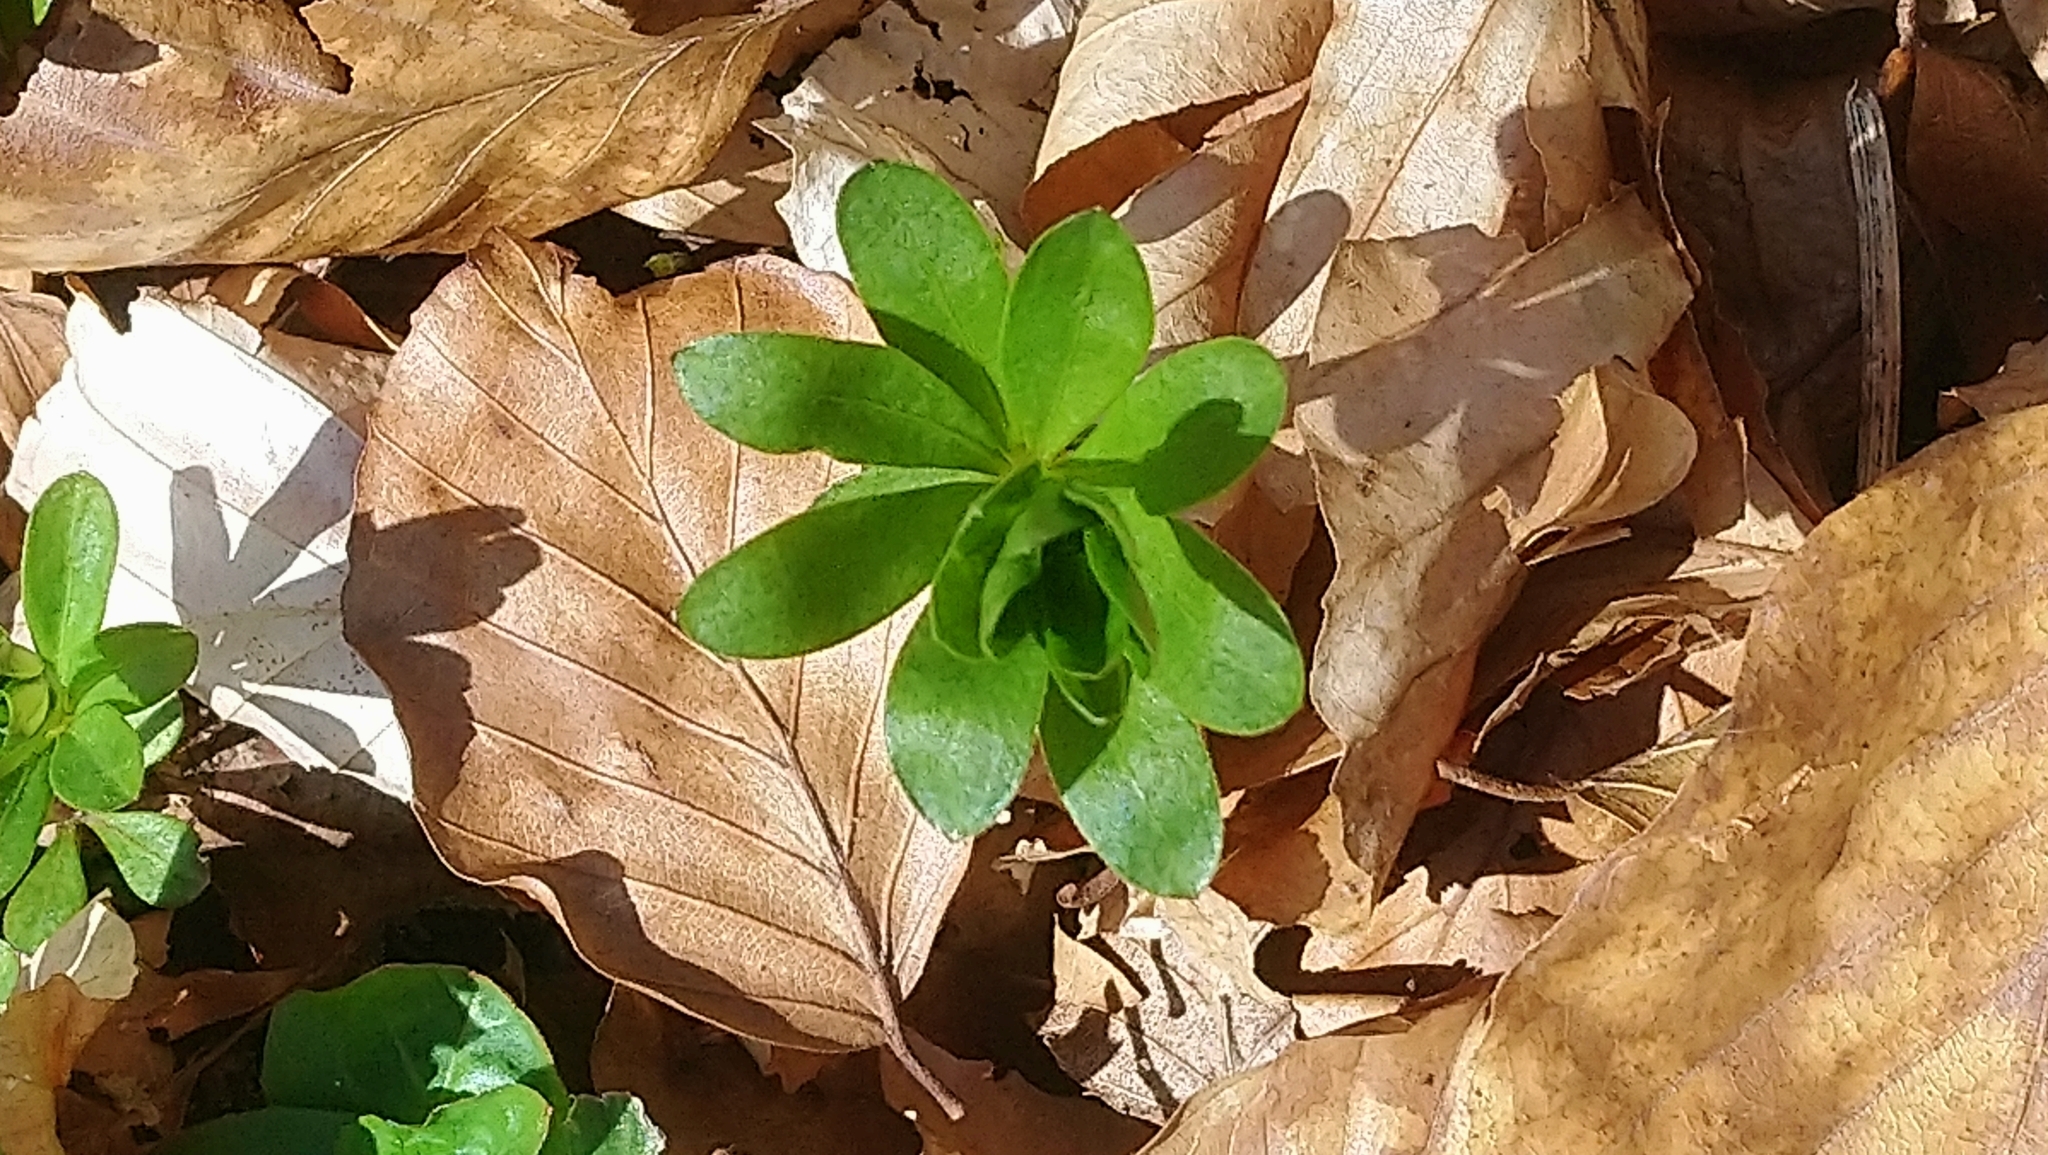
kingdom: Plantae
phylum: Tracheophyta
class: Magnoliopsida
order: Gentianales
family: Rubiaceae
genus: Galium
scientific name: Galium odoratum
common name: Sweet woodruff
